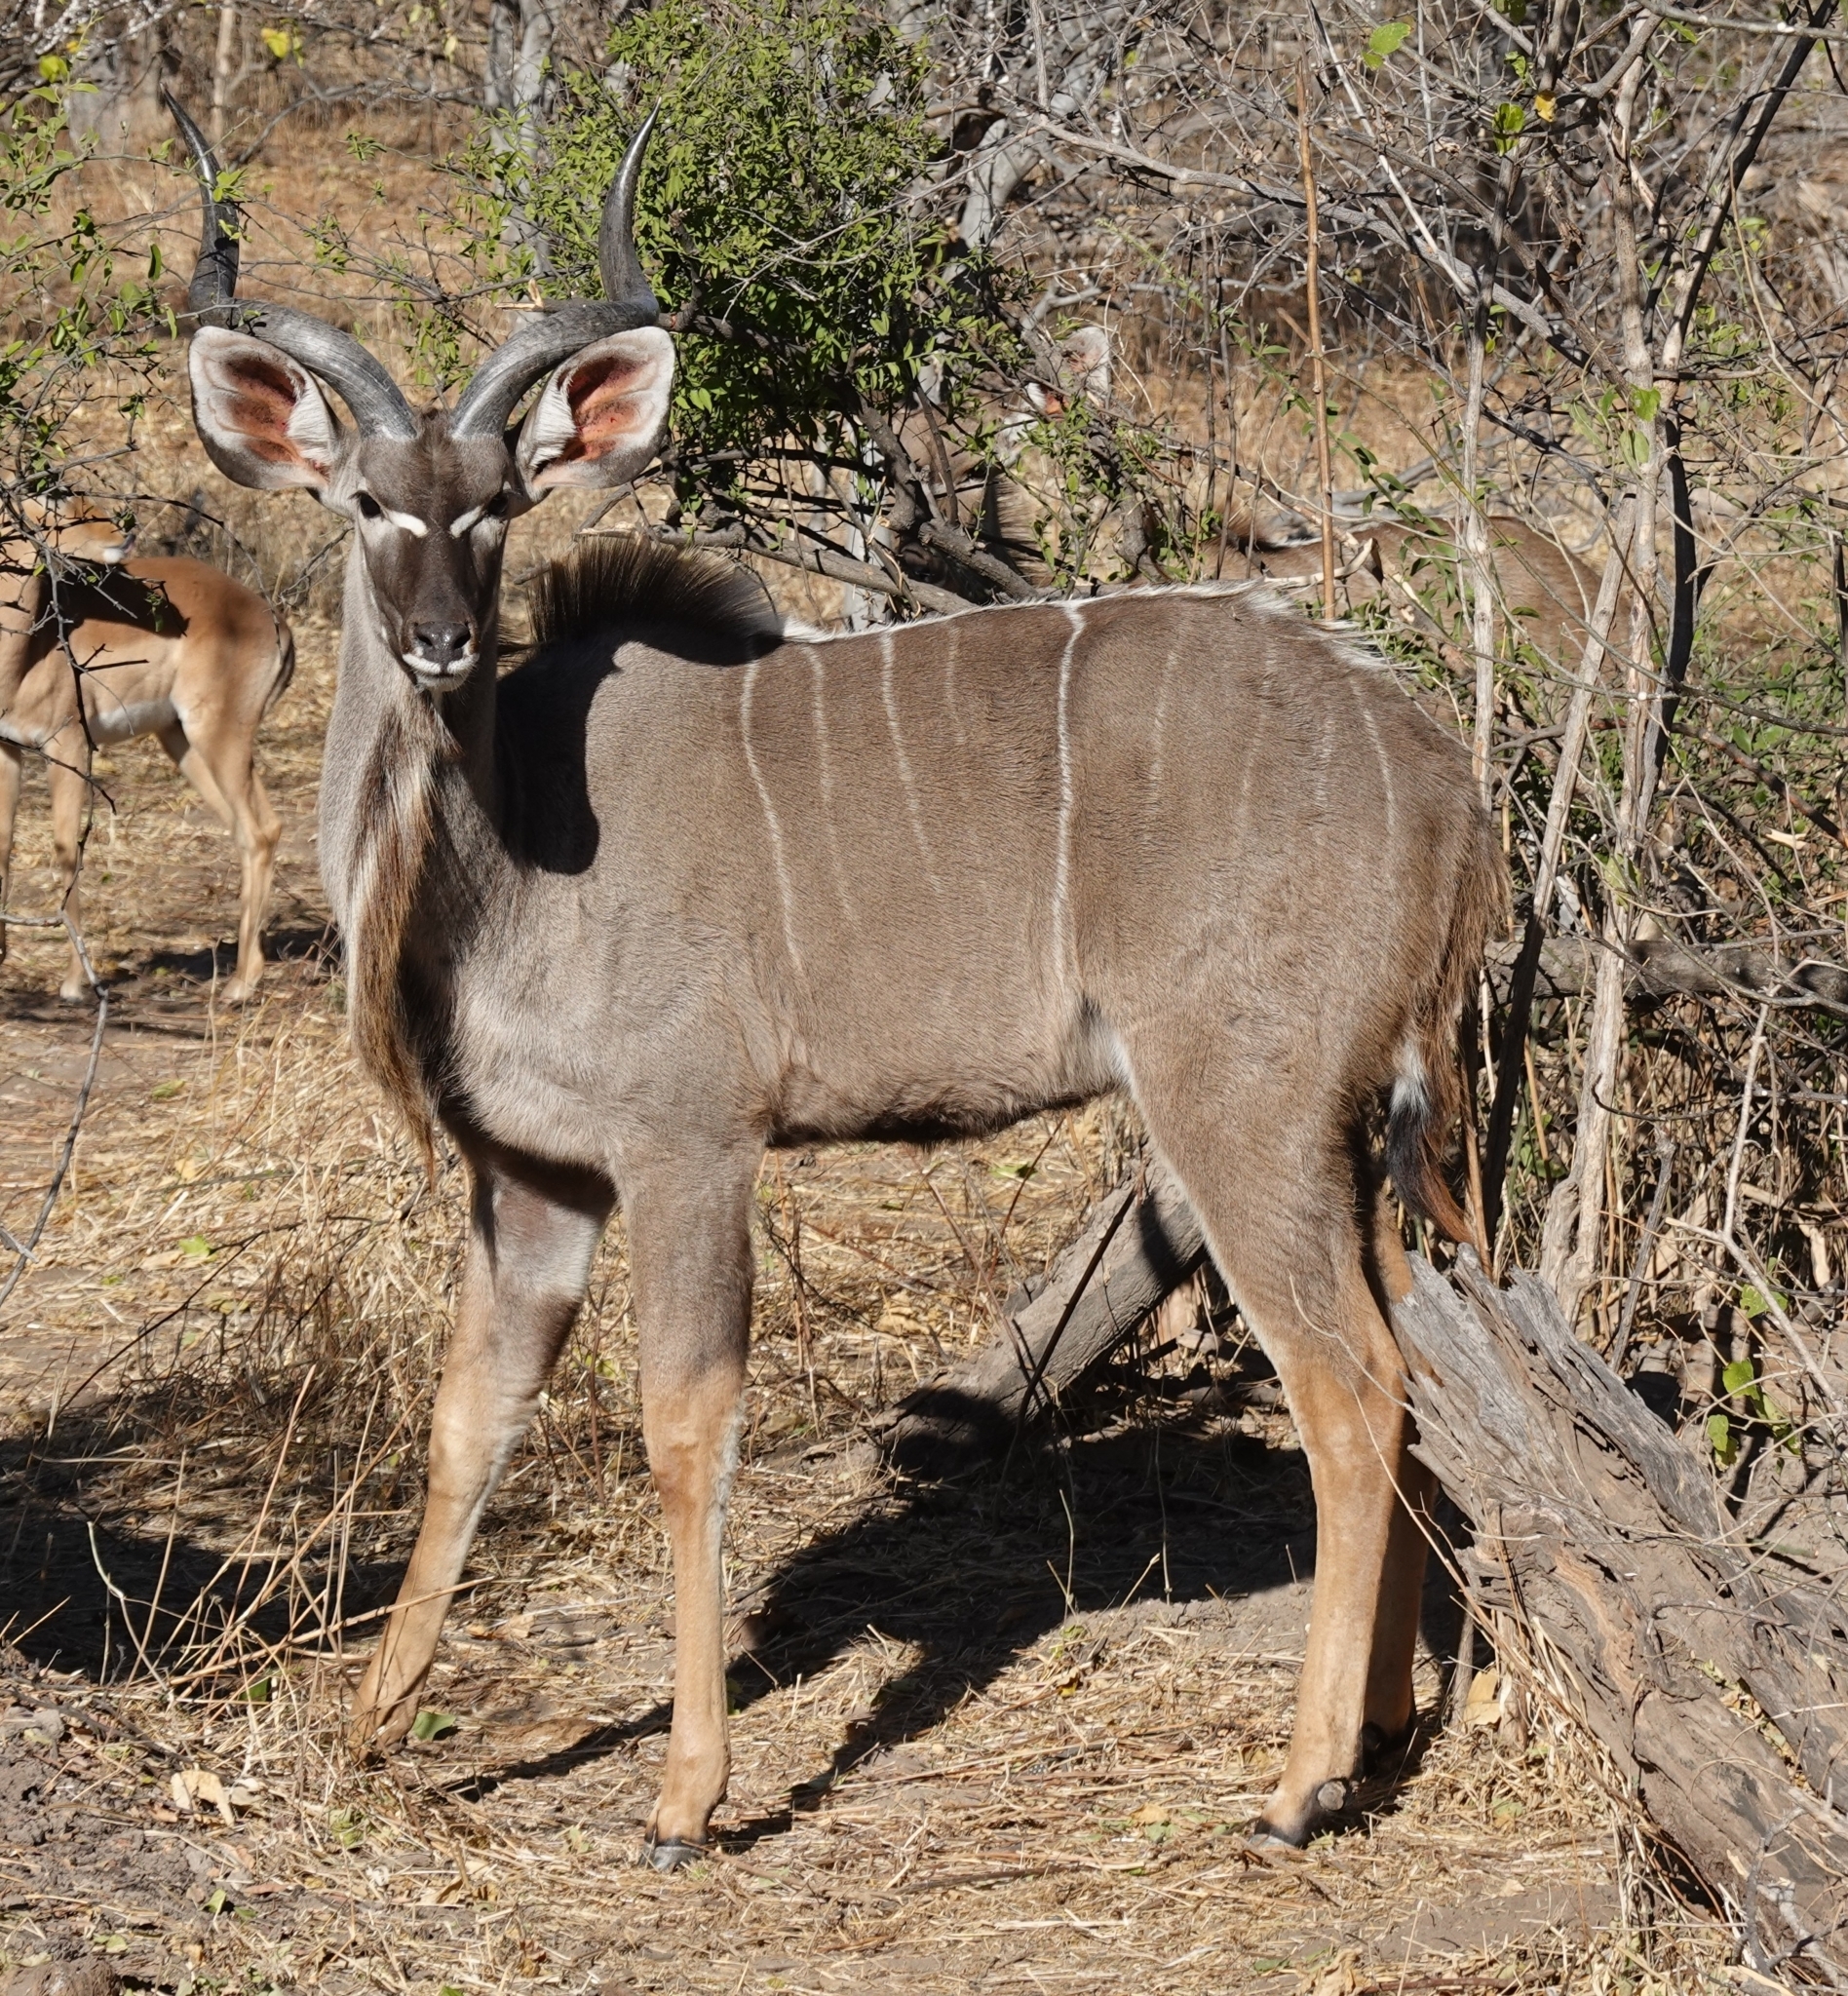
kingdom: Animalia
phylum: Chordata
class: Mammalia
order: Artiodactyla
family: Bovidae
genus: Tragelaphus
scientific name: Tragelaphus strepsiceros
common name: Greater kudu
